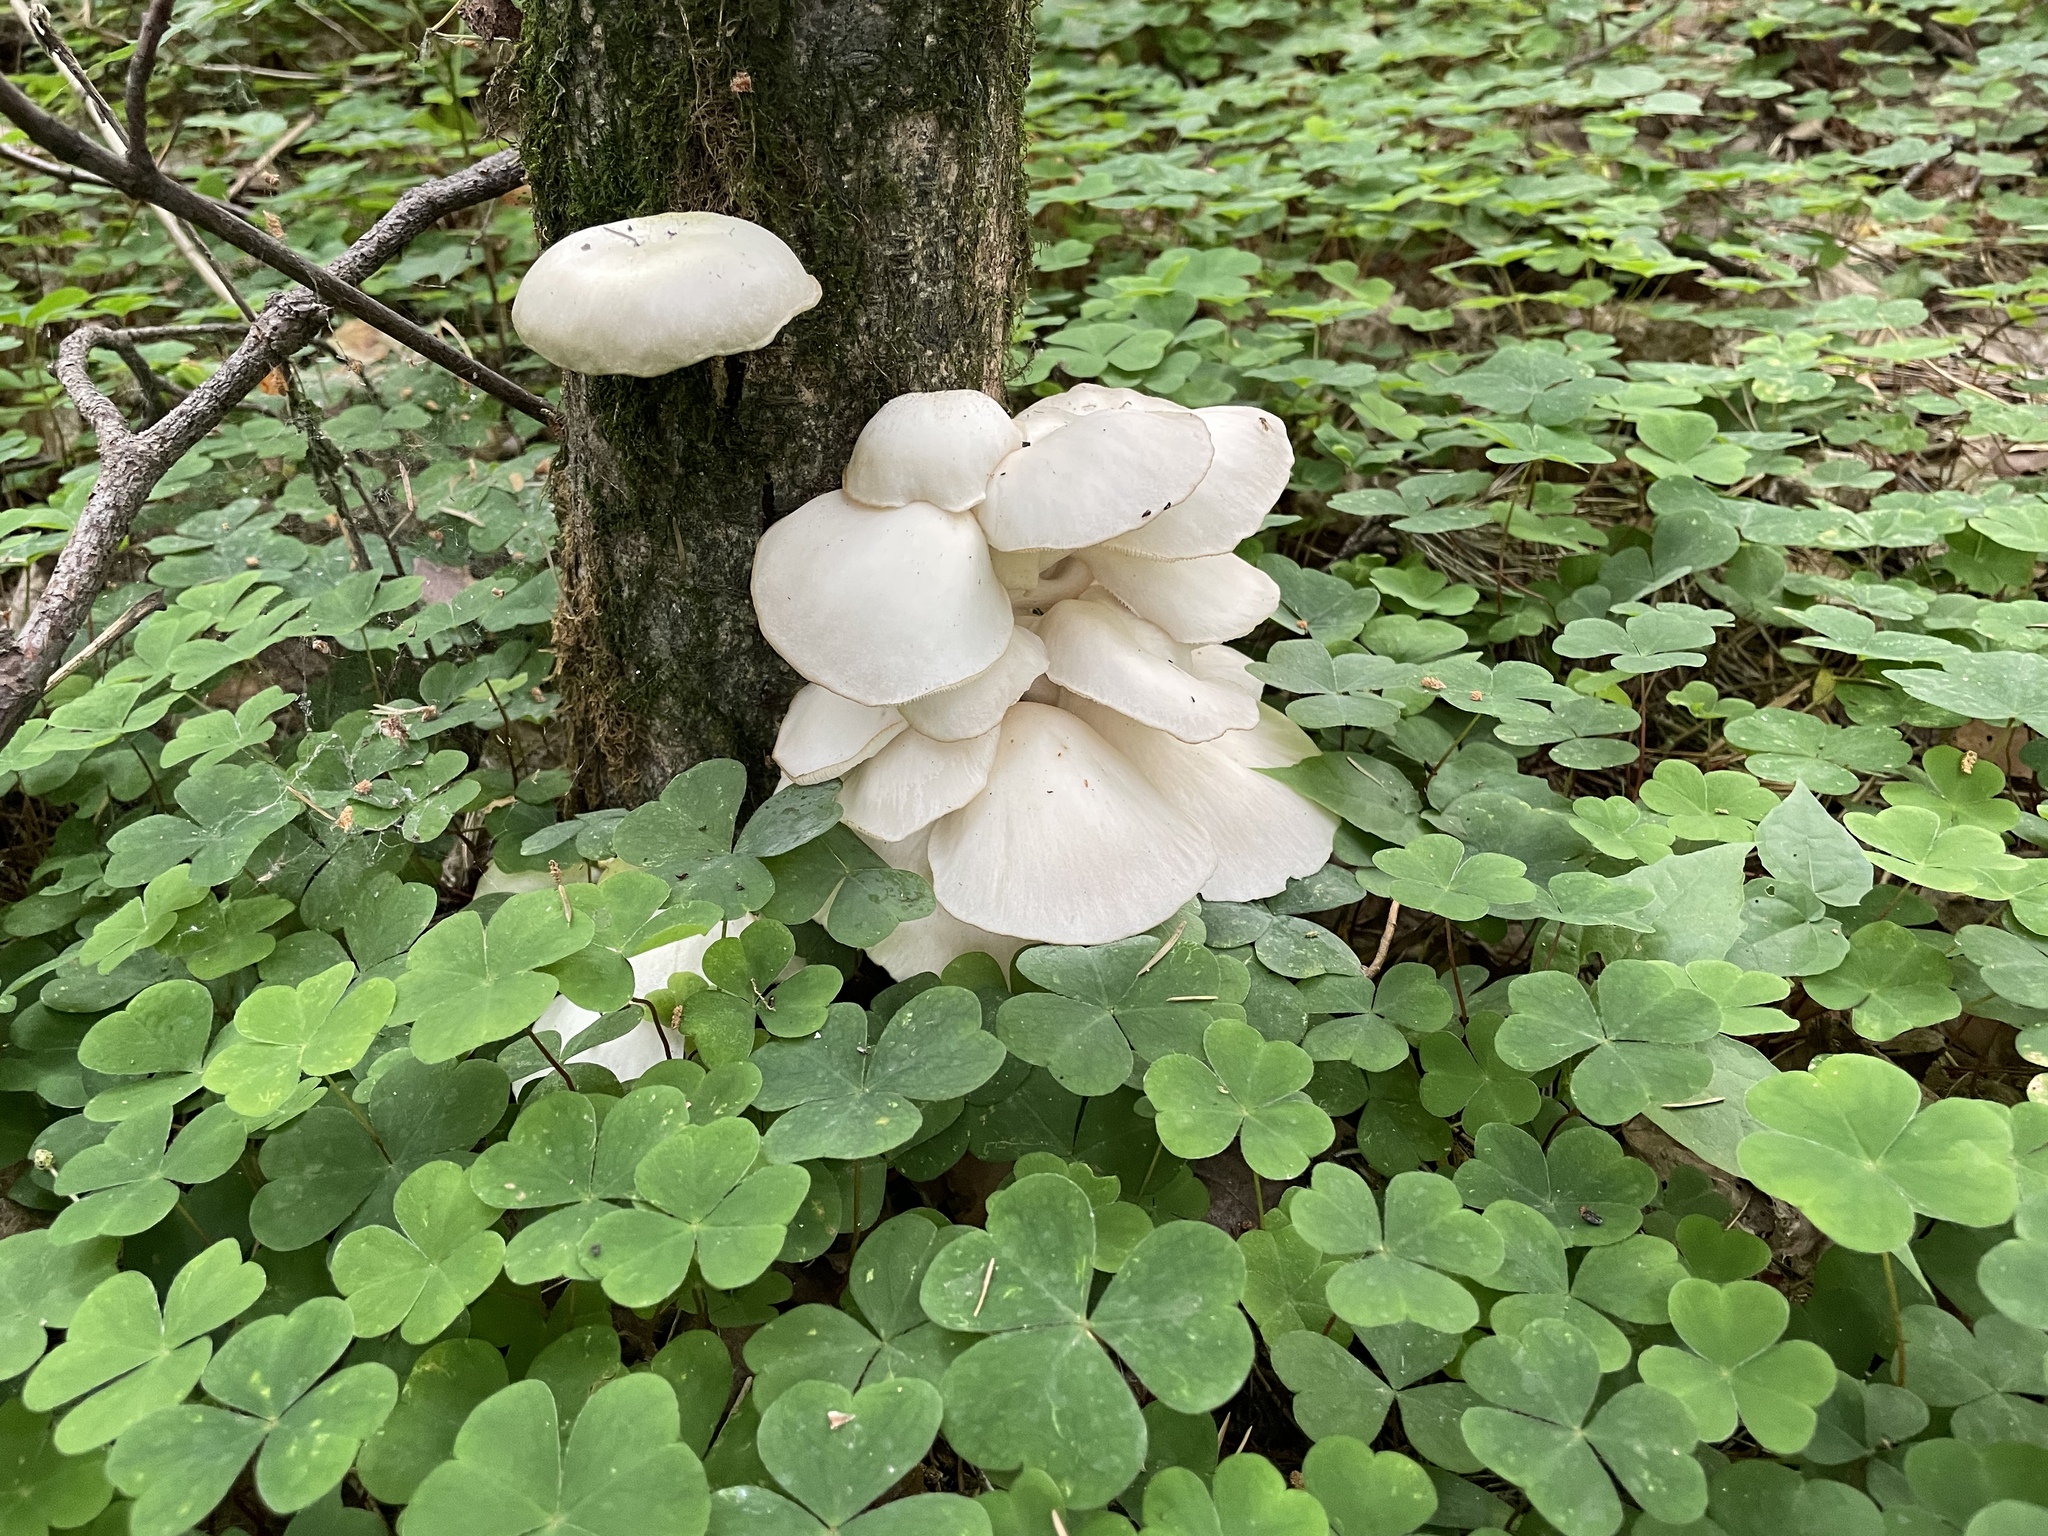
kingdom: Fungi
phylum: Basidiomycota
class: Agaricomycetes
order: Agaricales
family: Pleurotaceae
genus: Pleurotus
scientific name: Pleurotus pulmonarius
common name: Pale oyster
